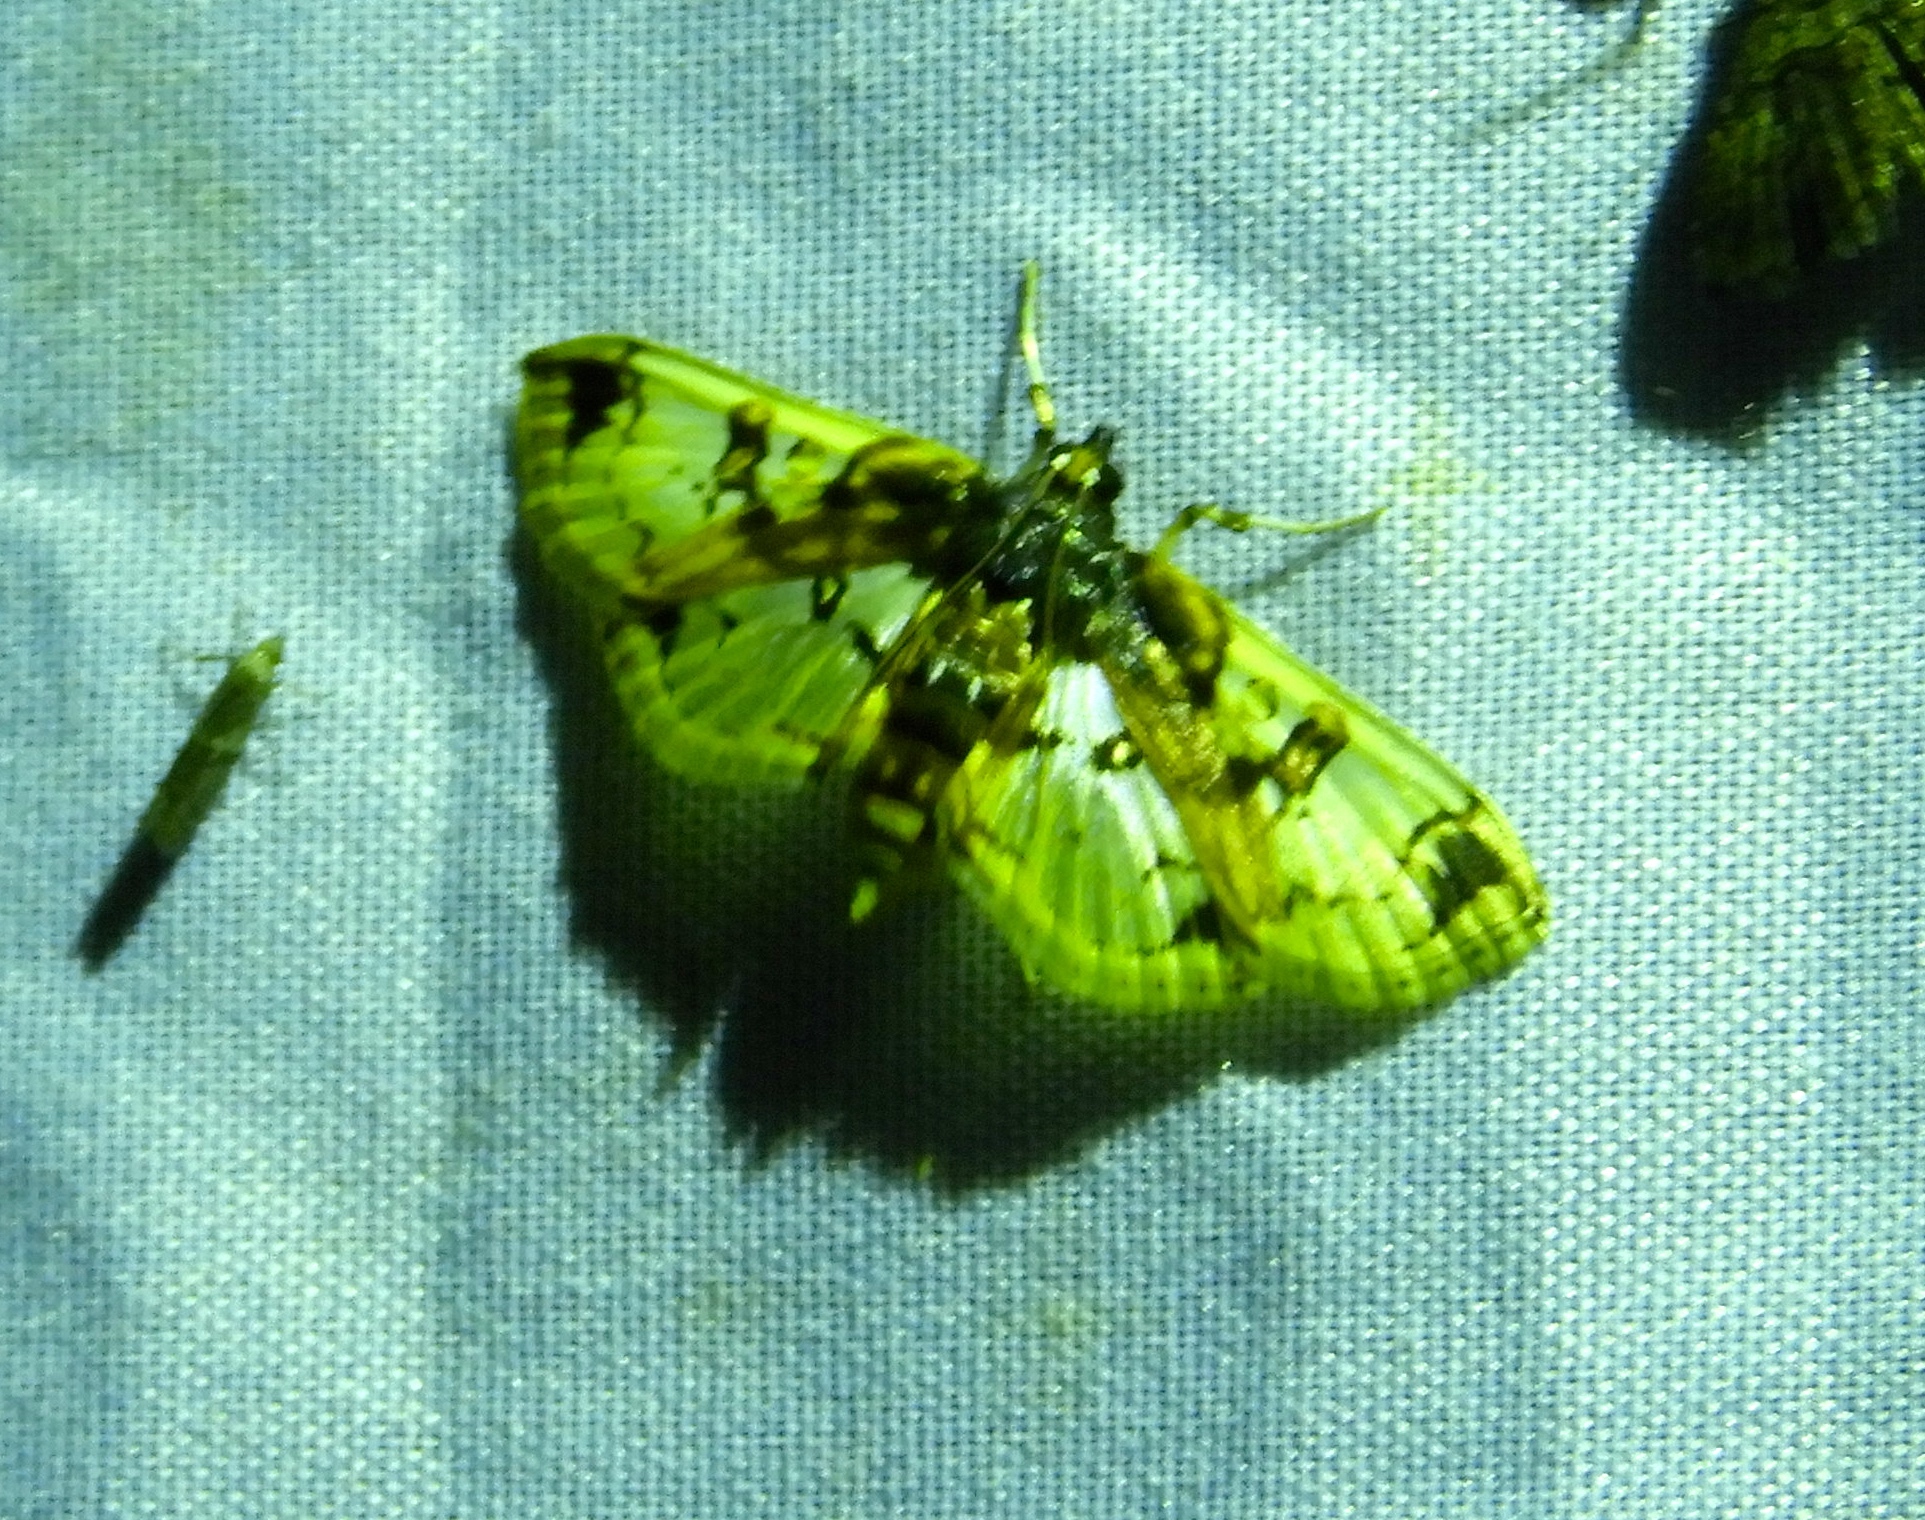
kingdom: Animalia
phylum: Arthropoda
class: Insecta
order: Lepidoptera
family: Crambidae
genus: Compacta
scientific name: Compacta capitalis
